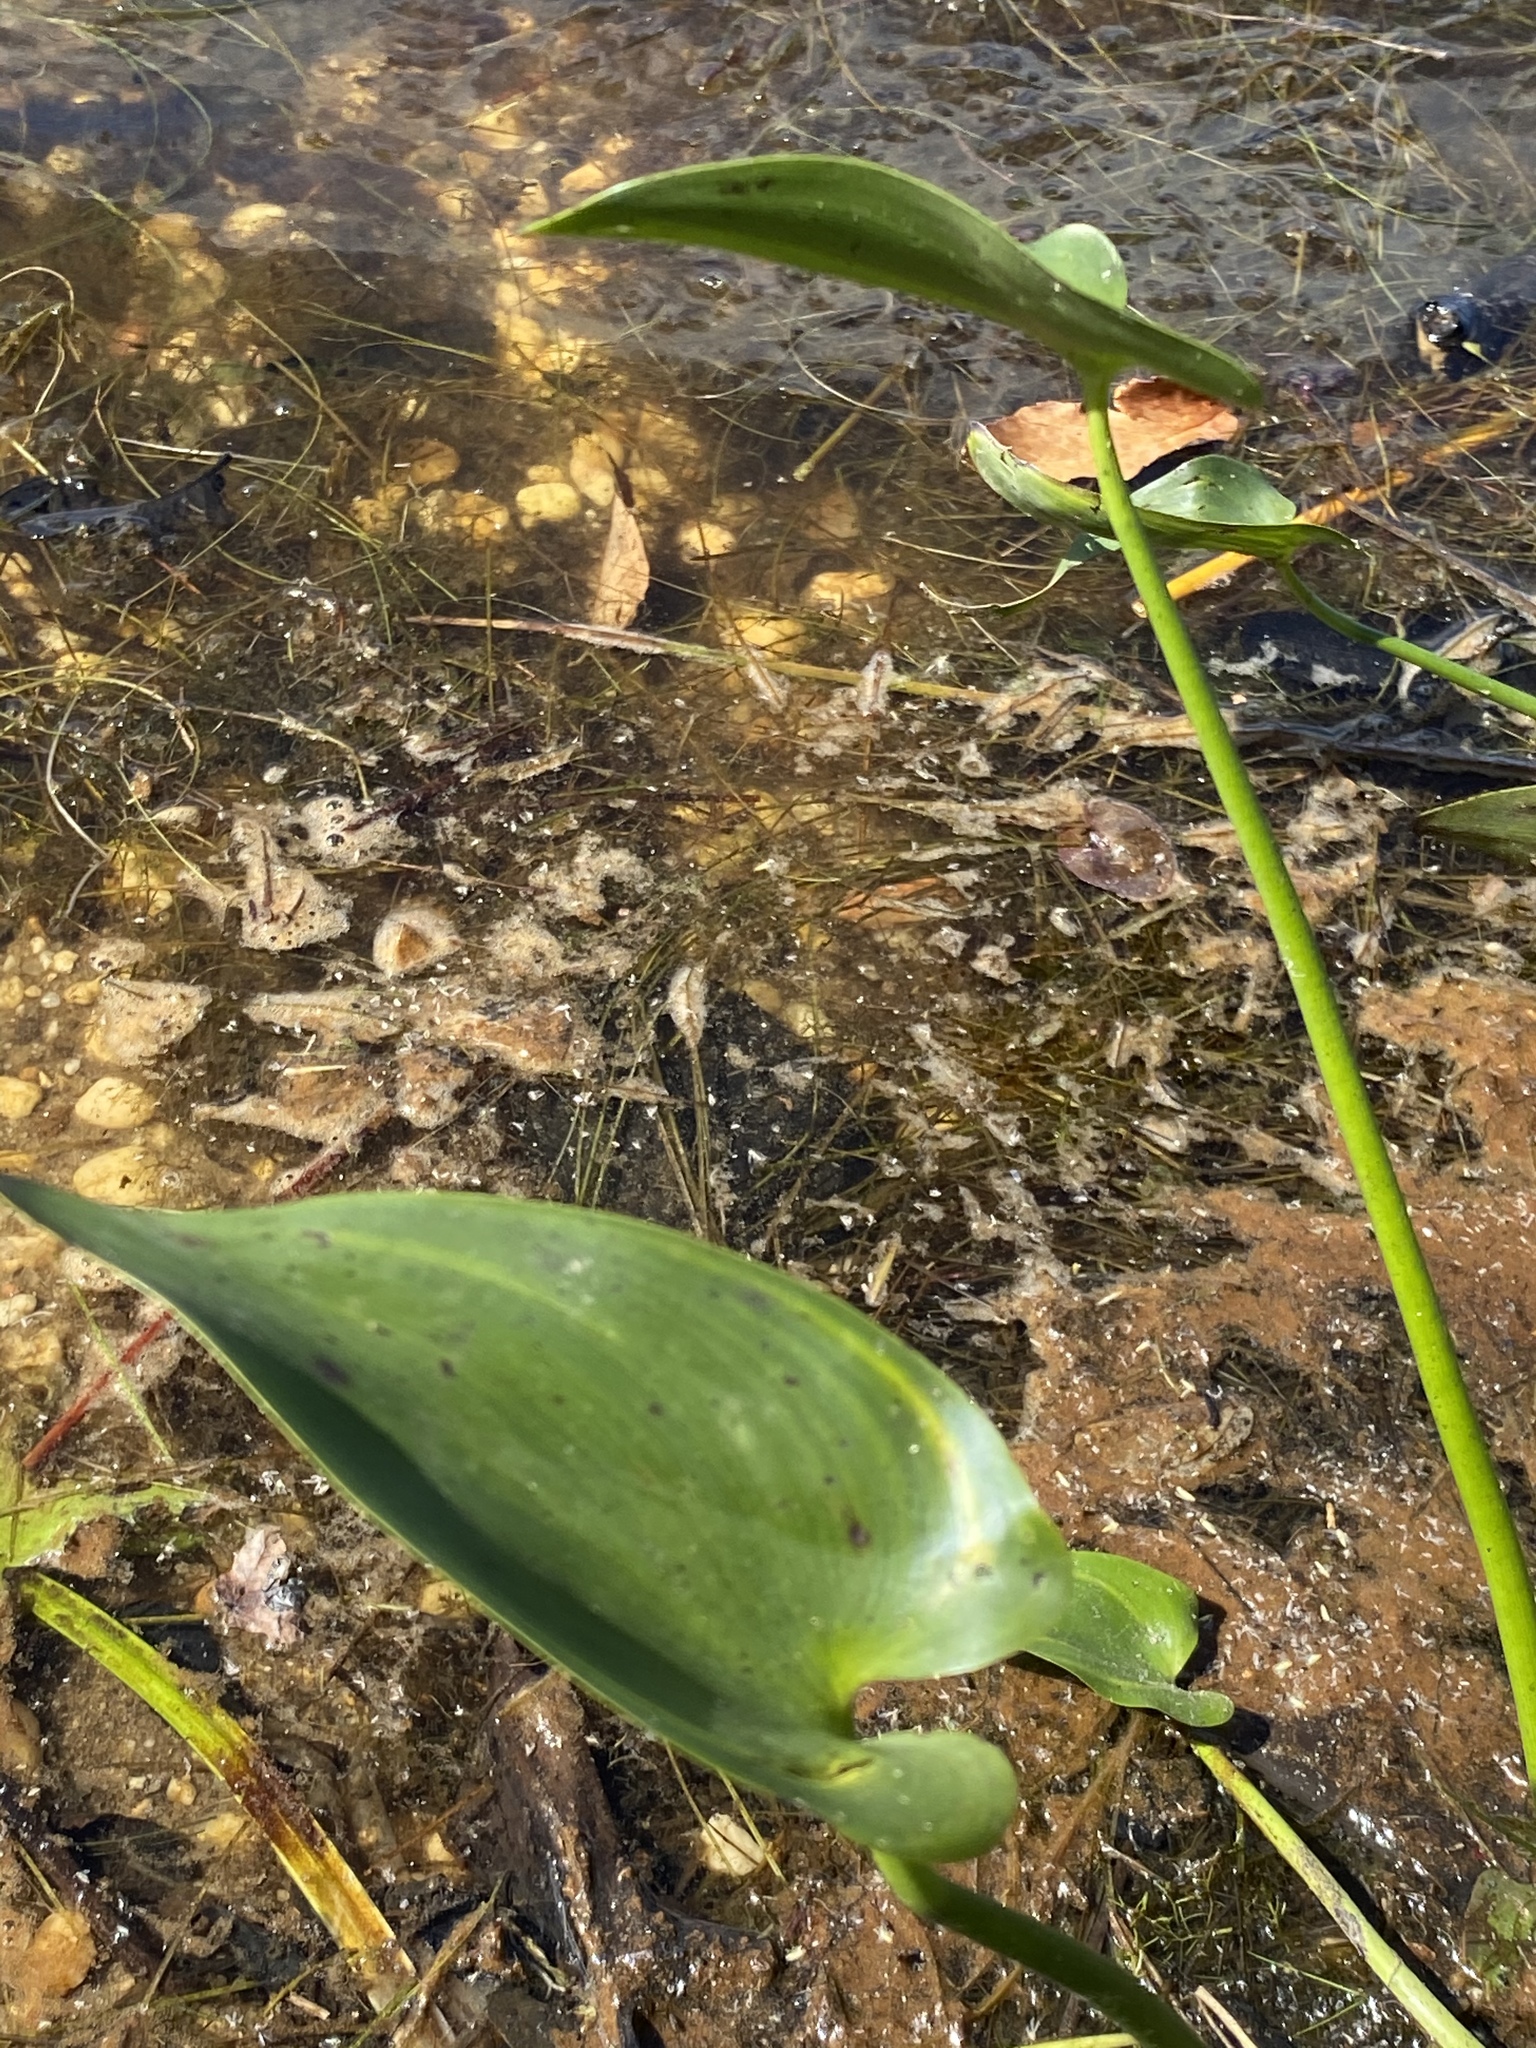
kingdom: Plantae
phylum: Tracheophyta
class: Liliopsida
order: Commelinales
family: Pontederiaceae
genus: Pontederia
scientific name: Pontederia cordata
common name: Pickerelweed
